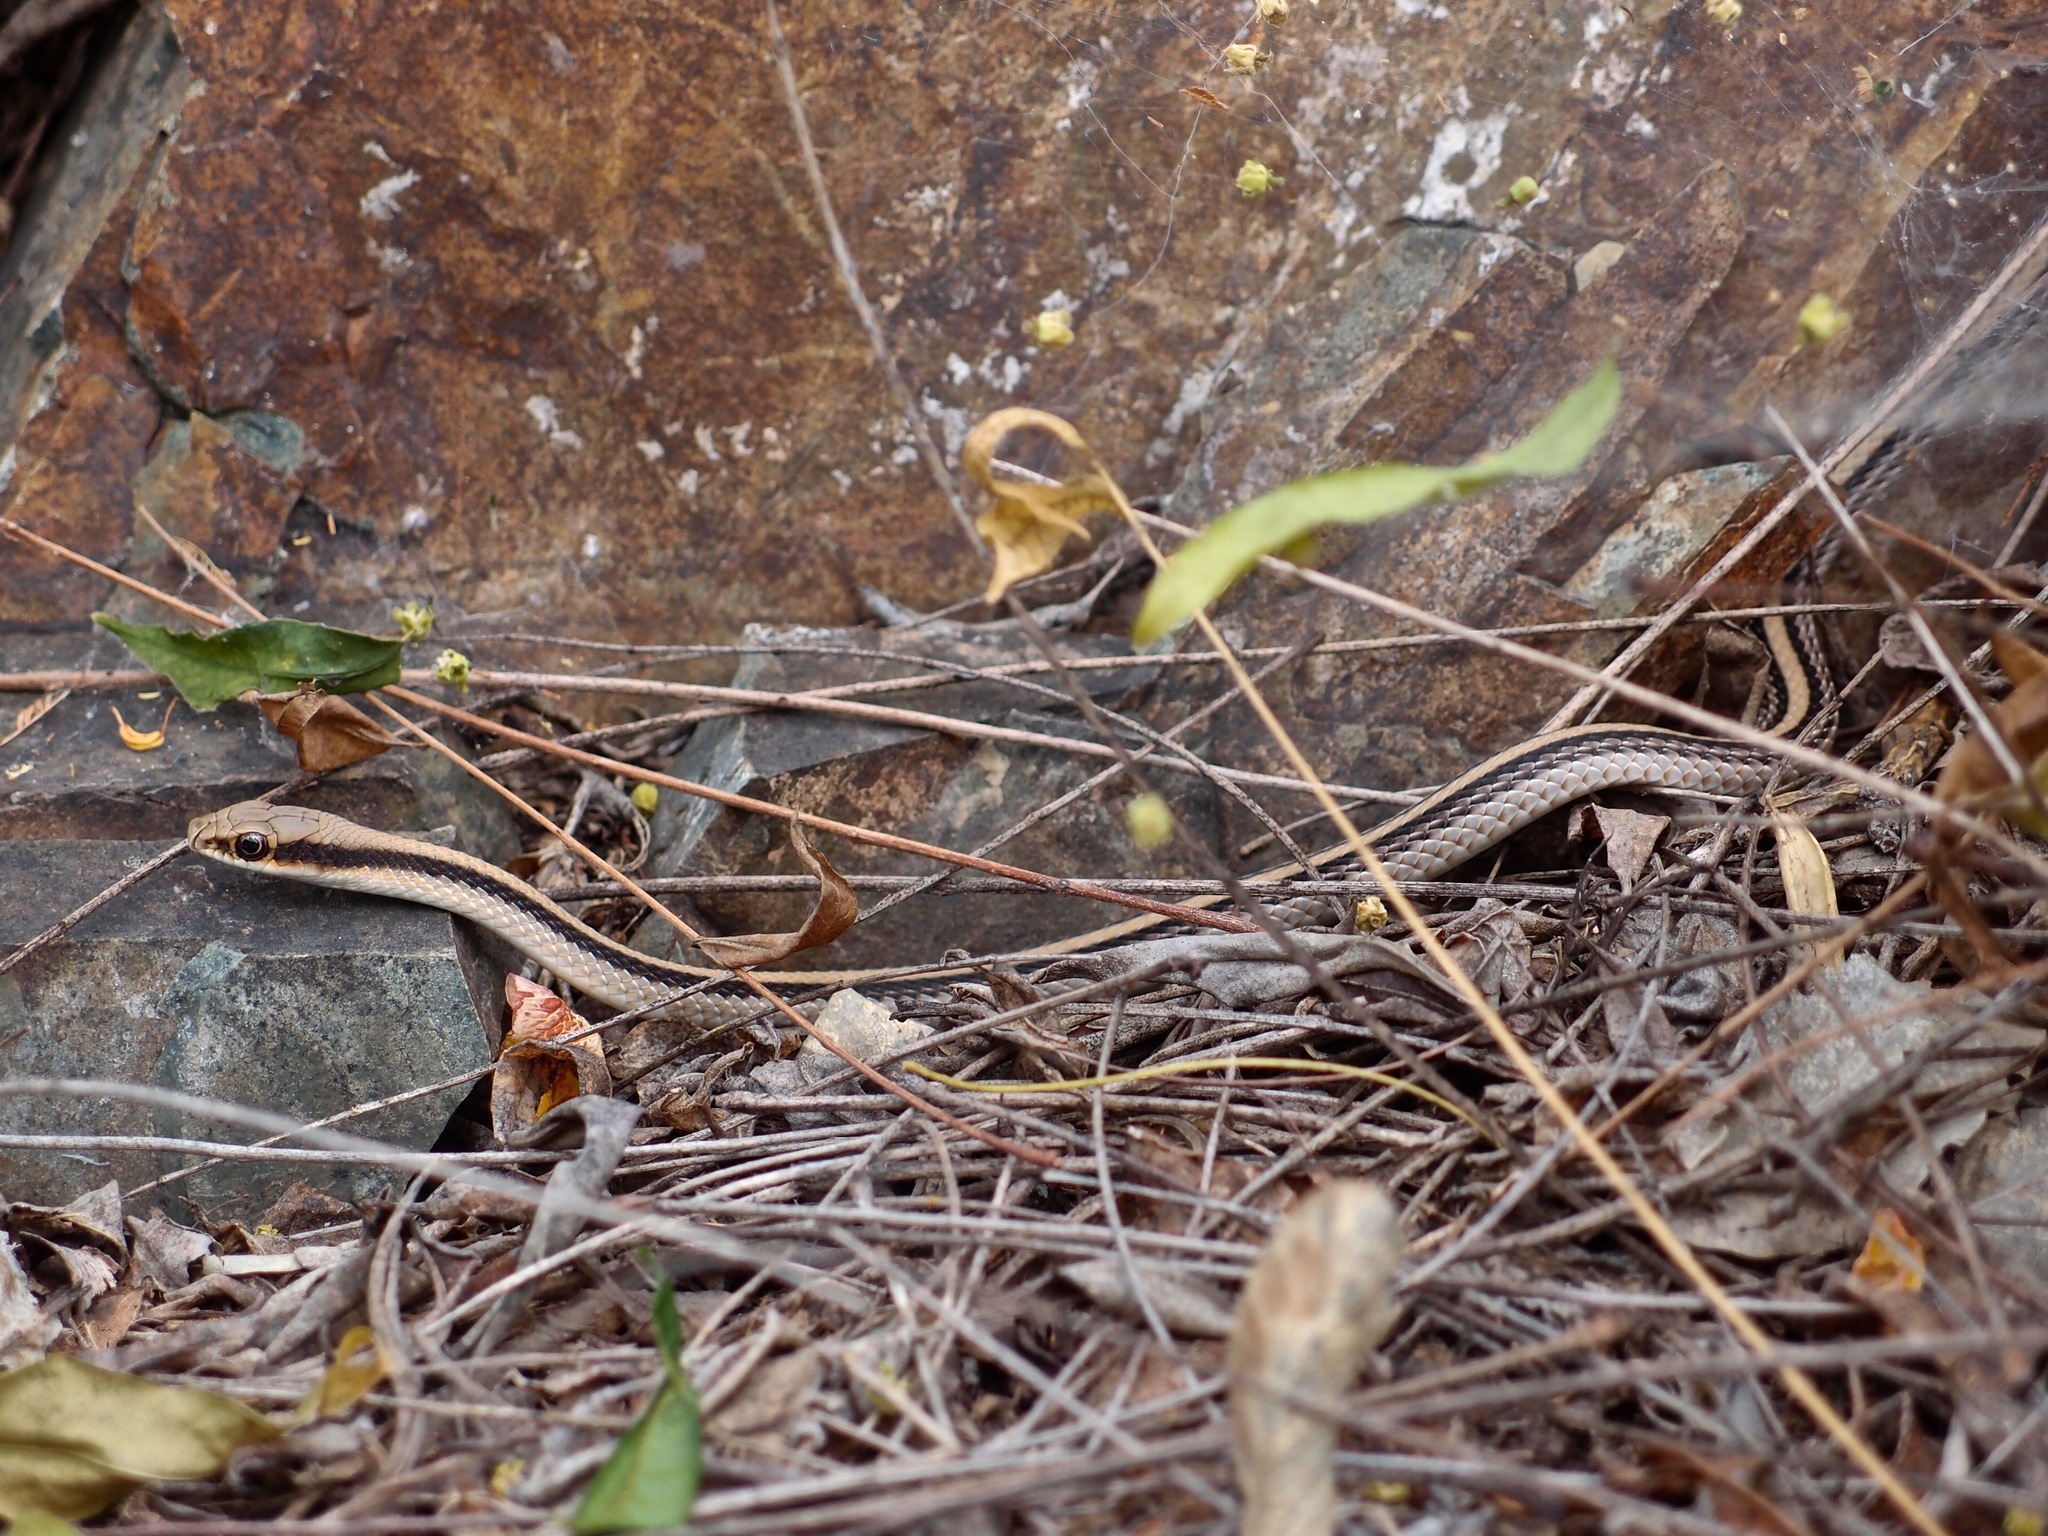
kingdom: Animalia
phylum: Chordata
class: Squamata
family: Colubridae
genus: Salvadora
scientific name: Salvadora deserticola
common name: Big bend patchnose snake
